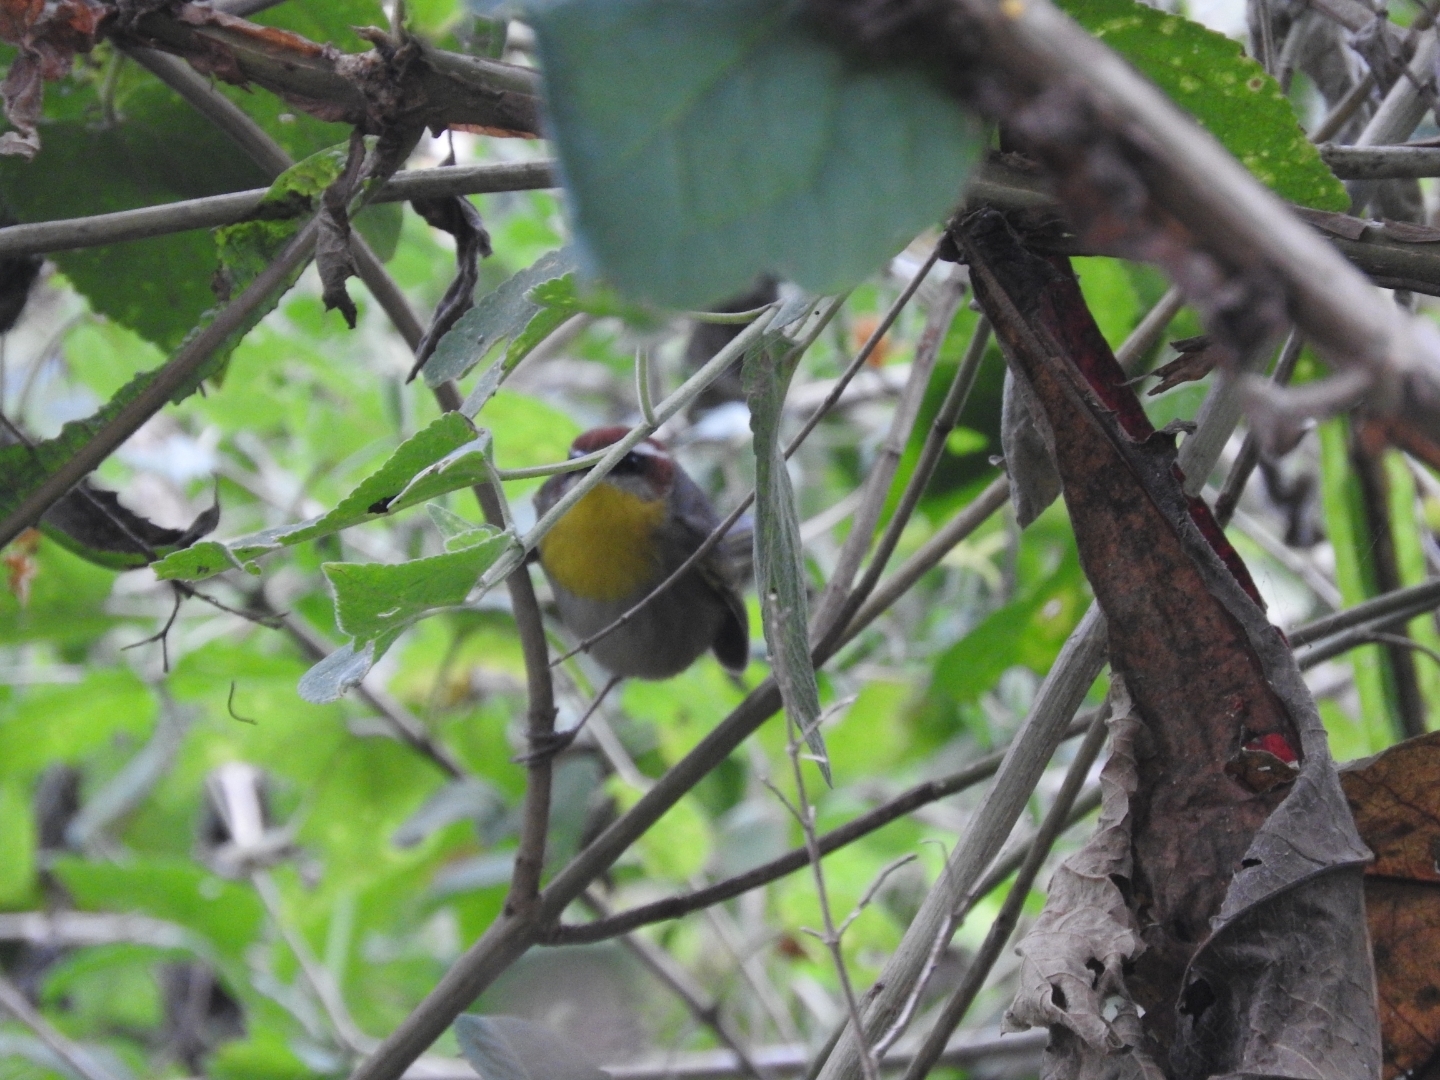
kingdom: Animalia
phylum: Chordata
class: Aves
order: Passeriformes
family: Parulidae
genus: Basileuterus
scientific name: Basileuterus rufifrons
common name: Rufous-capped warbler
